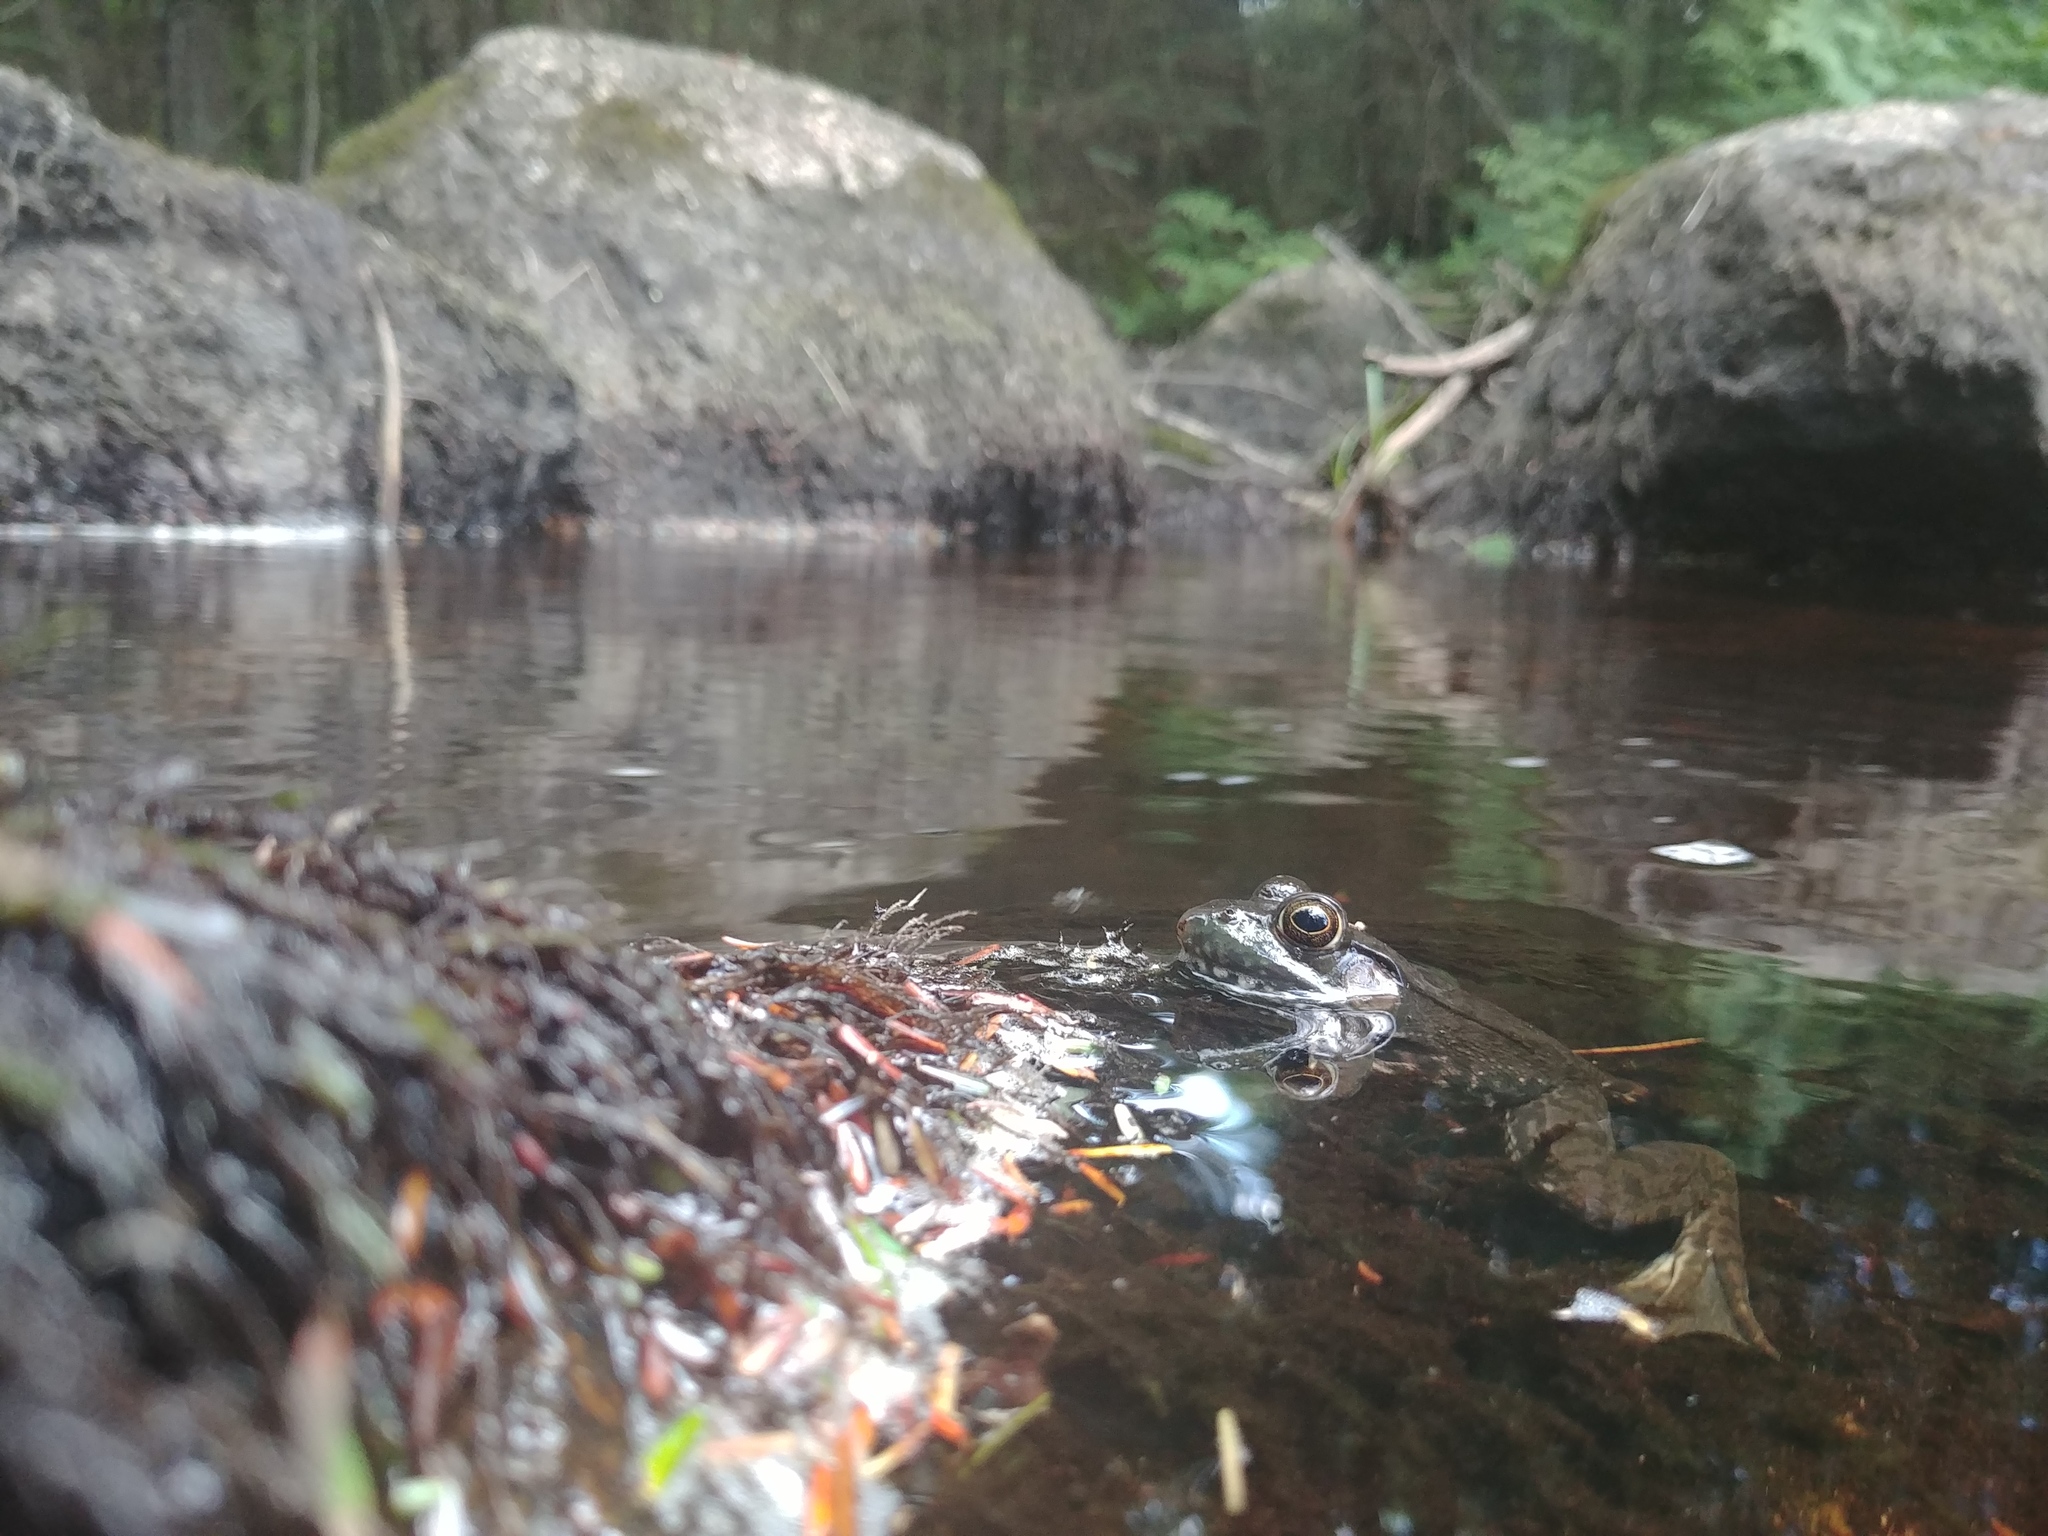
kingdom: Animalia
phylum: Chordata
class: Amphibia
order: Anura
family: Ranidae
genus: Lithobates
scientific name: Lithobates clamitans
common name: Green frog
